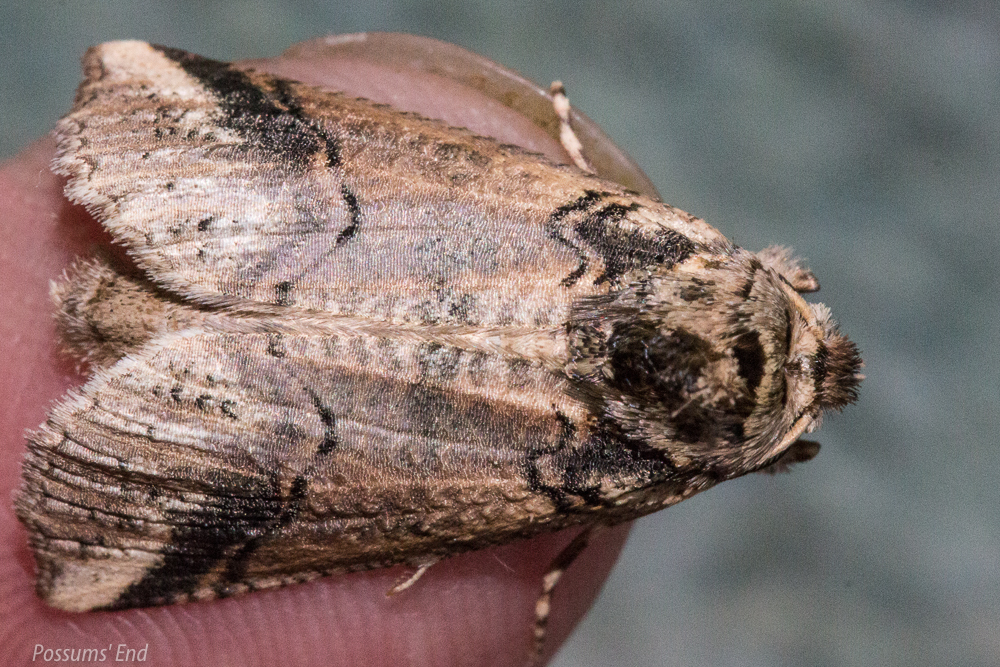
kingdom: Animalia
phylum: Arthropoda
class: Insecta
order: Lepidoptera
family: Geometridae
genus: Declana
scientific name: Declana
